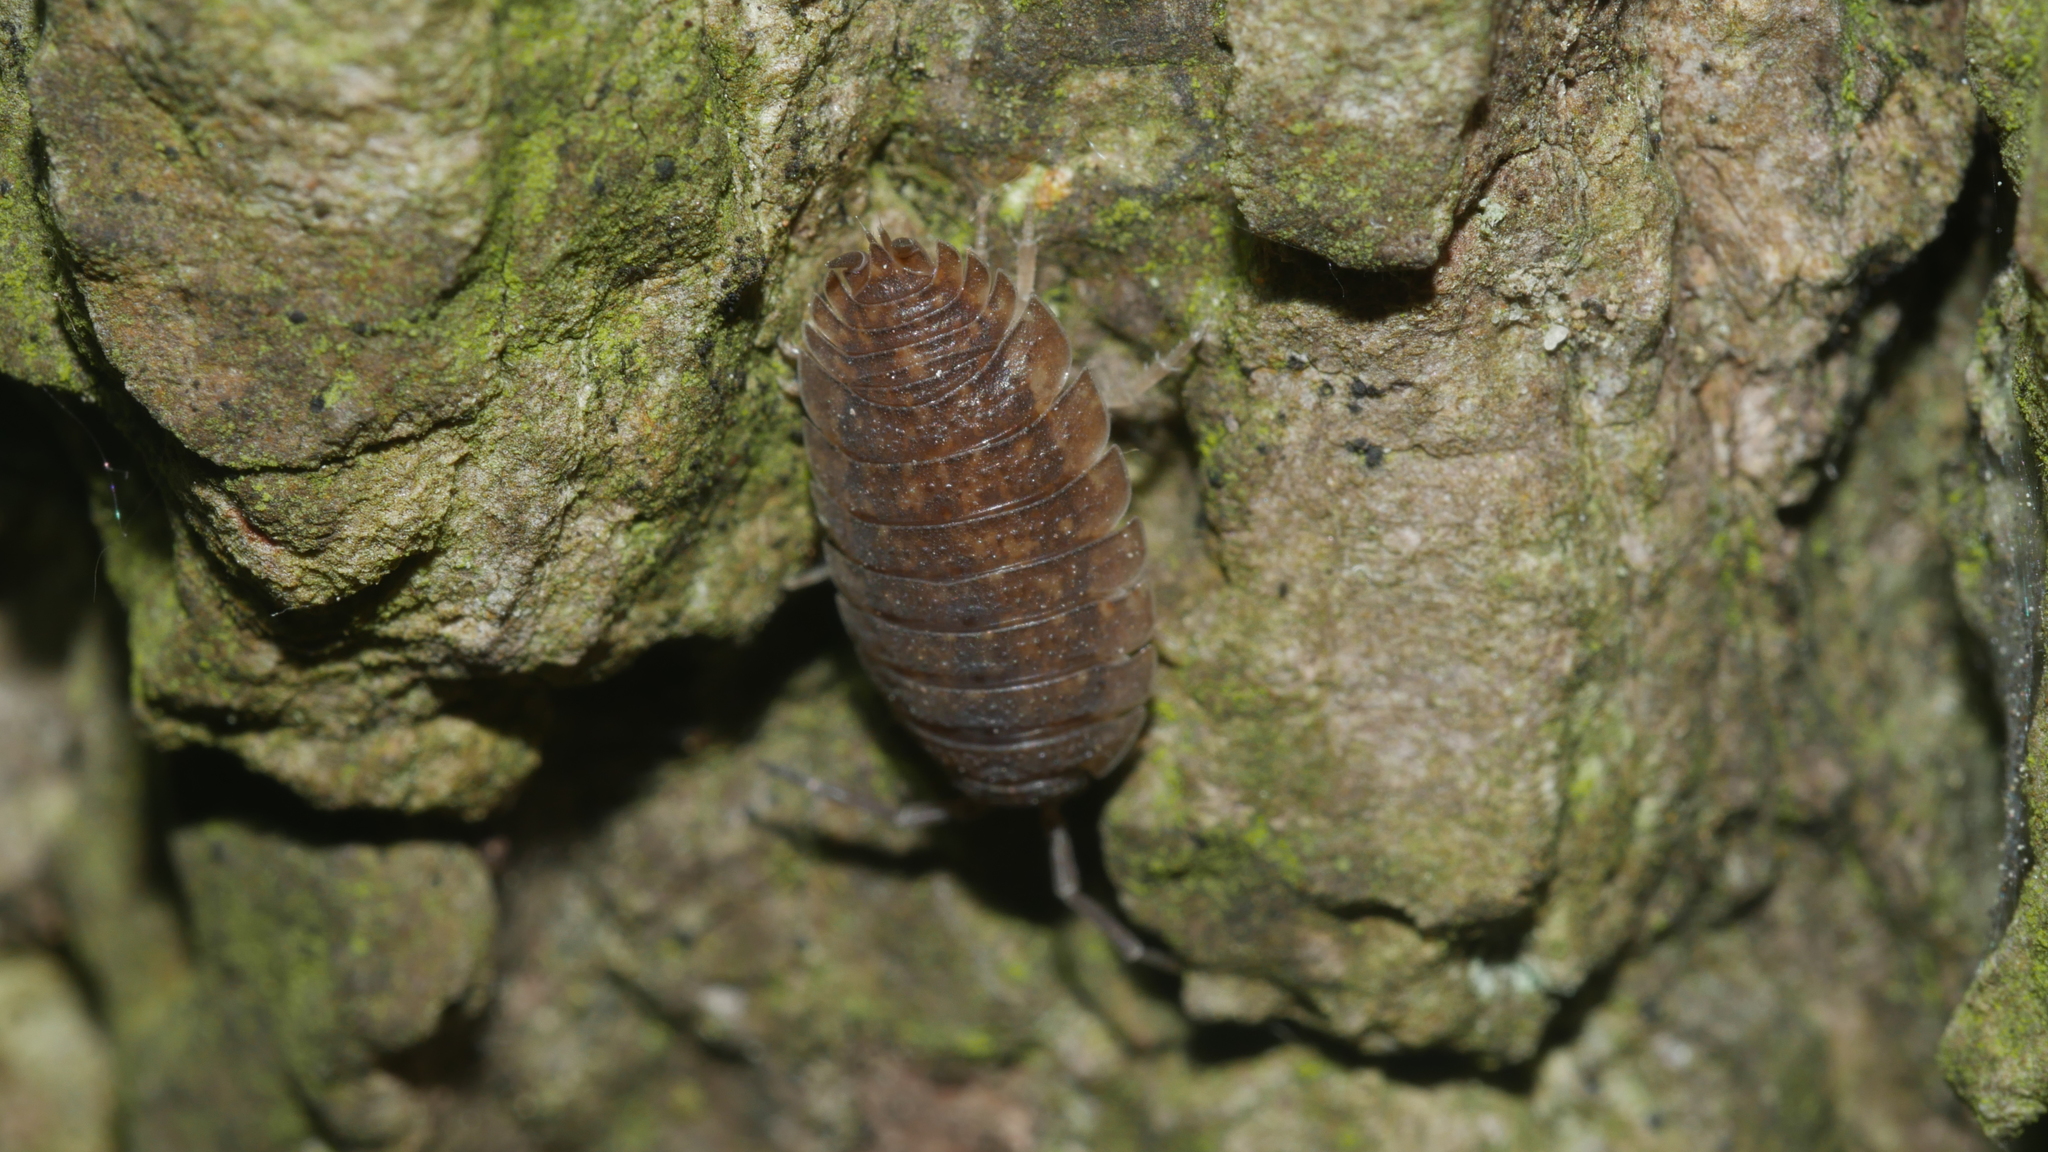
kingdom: Animalia
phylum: Arthropoda
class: Malacostraca
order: Isopoda
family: Porcellionidae
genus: Porcellio
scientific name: Porcellio scaber
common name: Common rough woodlouse
